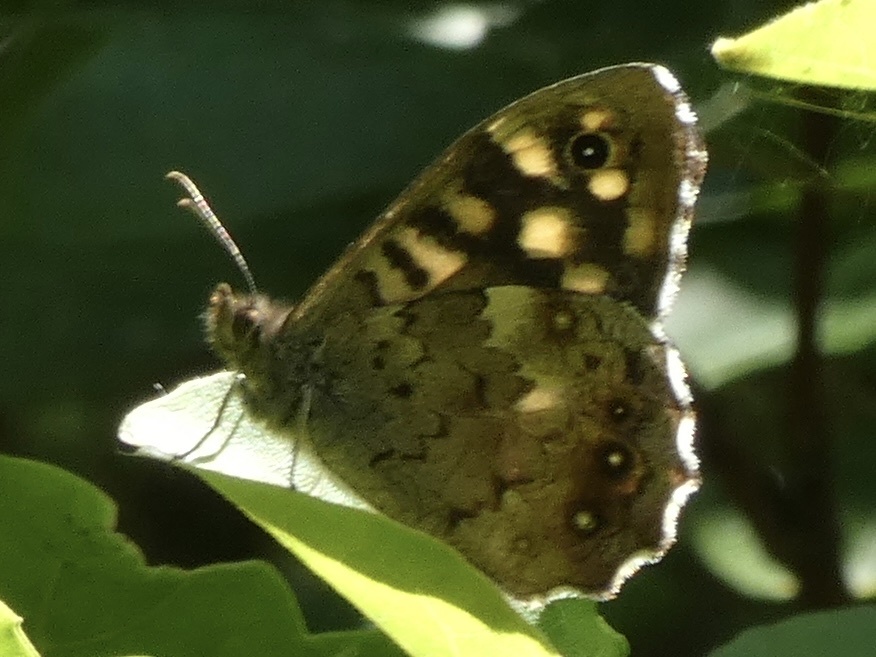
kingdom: Animalia
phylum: Arthropoda
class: Insecta
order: Lepidoptera
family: Nymphalidae
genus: Pararge
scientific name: Pararge aegeria
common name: Speckled wood
